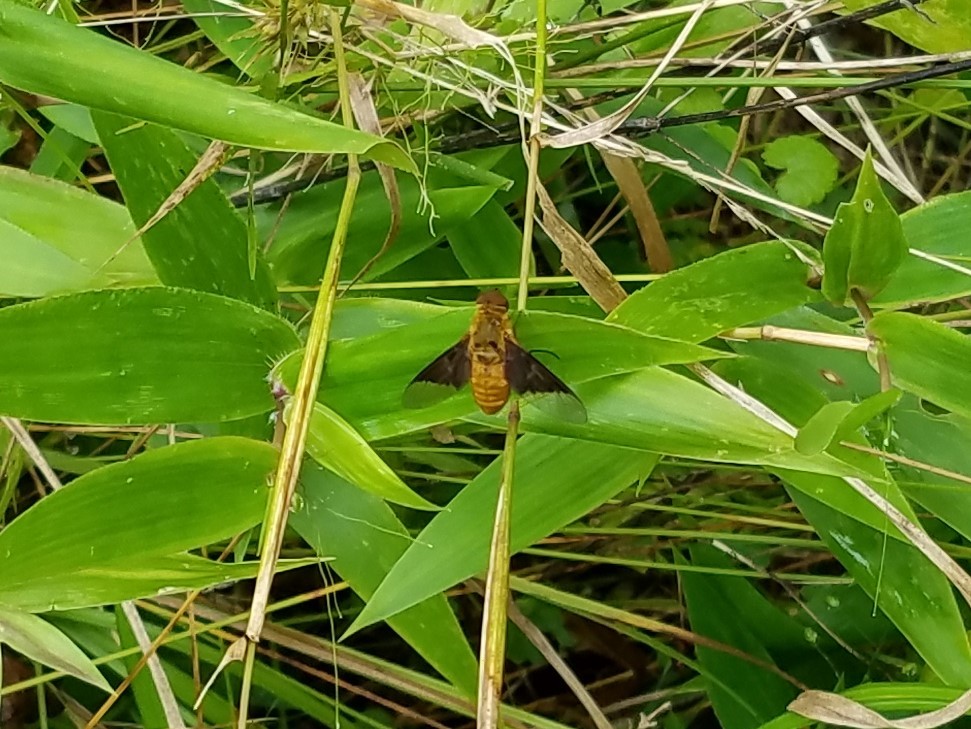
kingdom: Animalia
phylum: Arthropoda
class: Insecta
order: Diptera
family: Bombyliidae
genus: Chrysanthrax
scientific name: Chrysanthrax cypris
